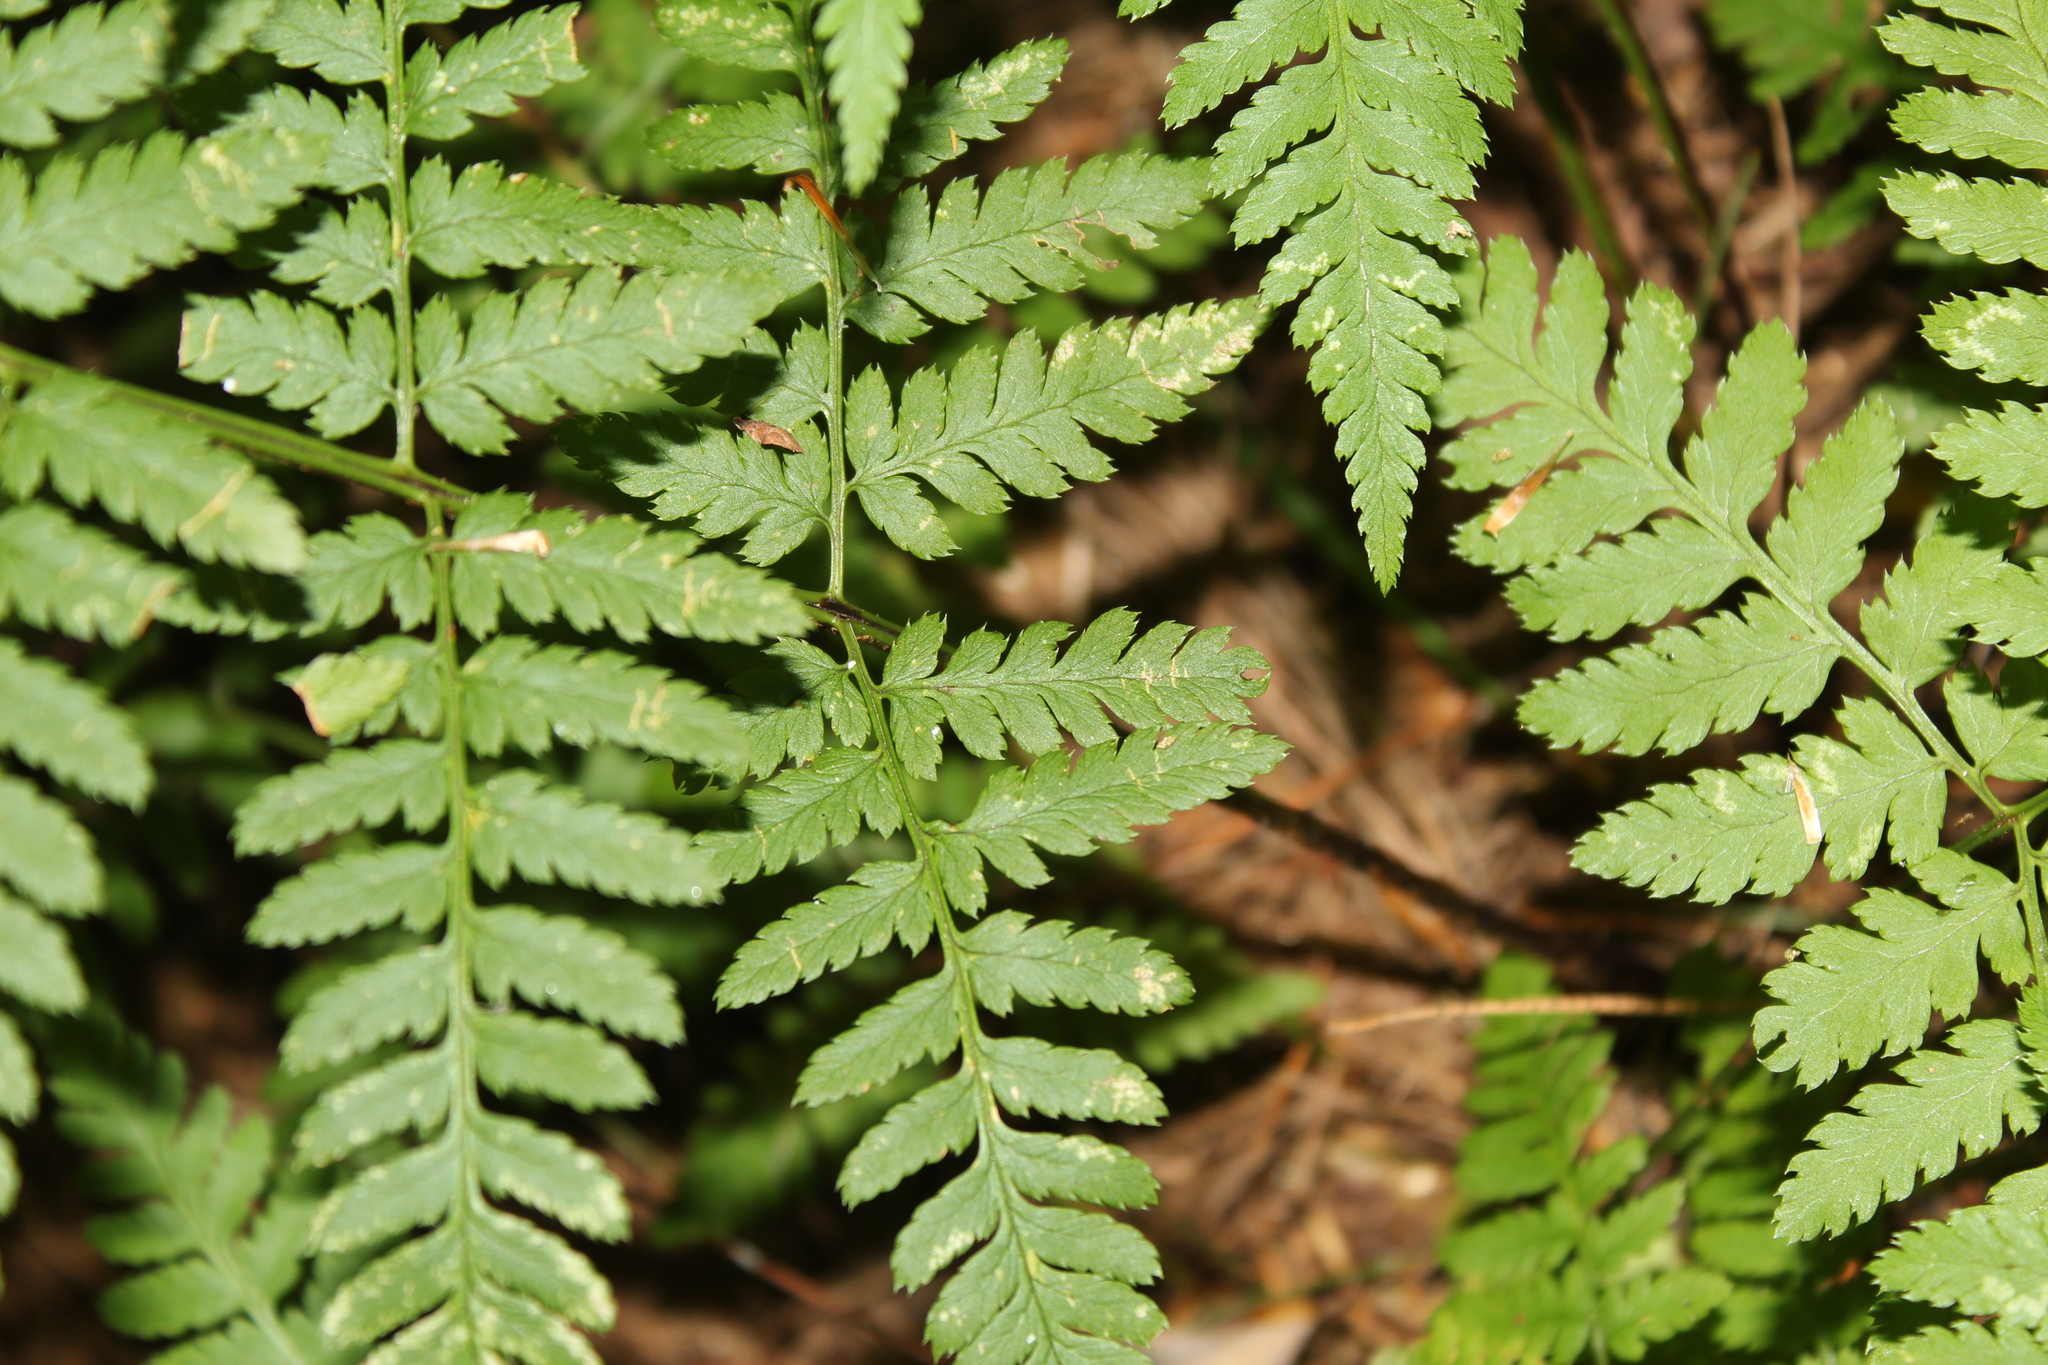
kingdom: Plantae
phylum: Tracheophyta
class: Polypodiopsida
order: Polypodiales
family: Dryopteridaceae
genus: Dryopteris
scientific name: Dryopteris carthusiana
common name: Narrow buckler-fern
